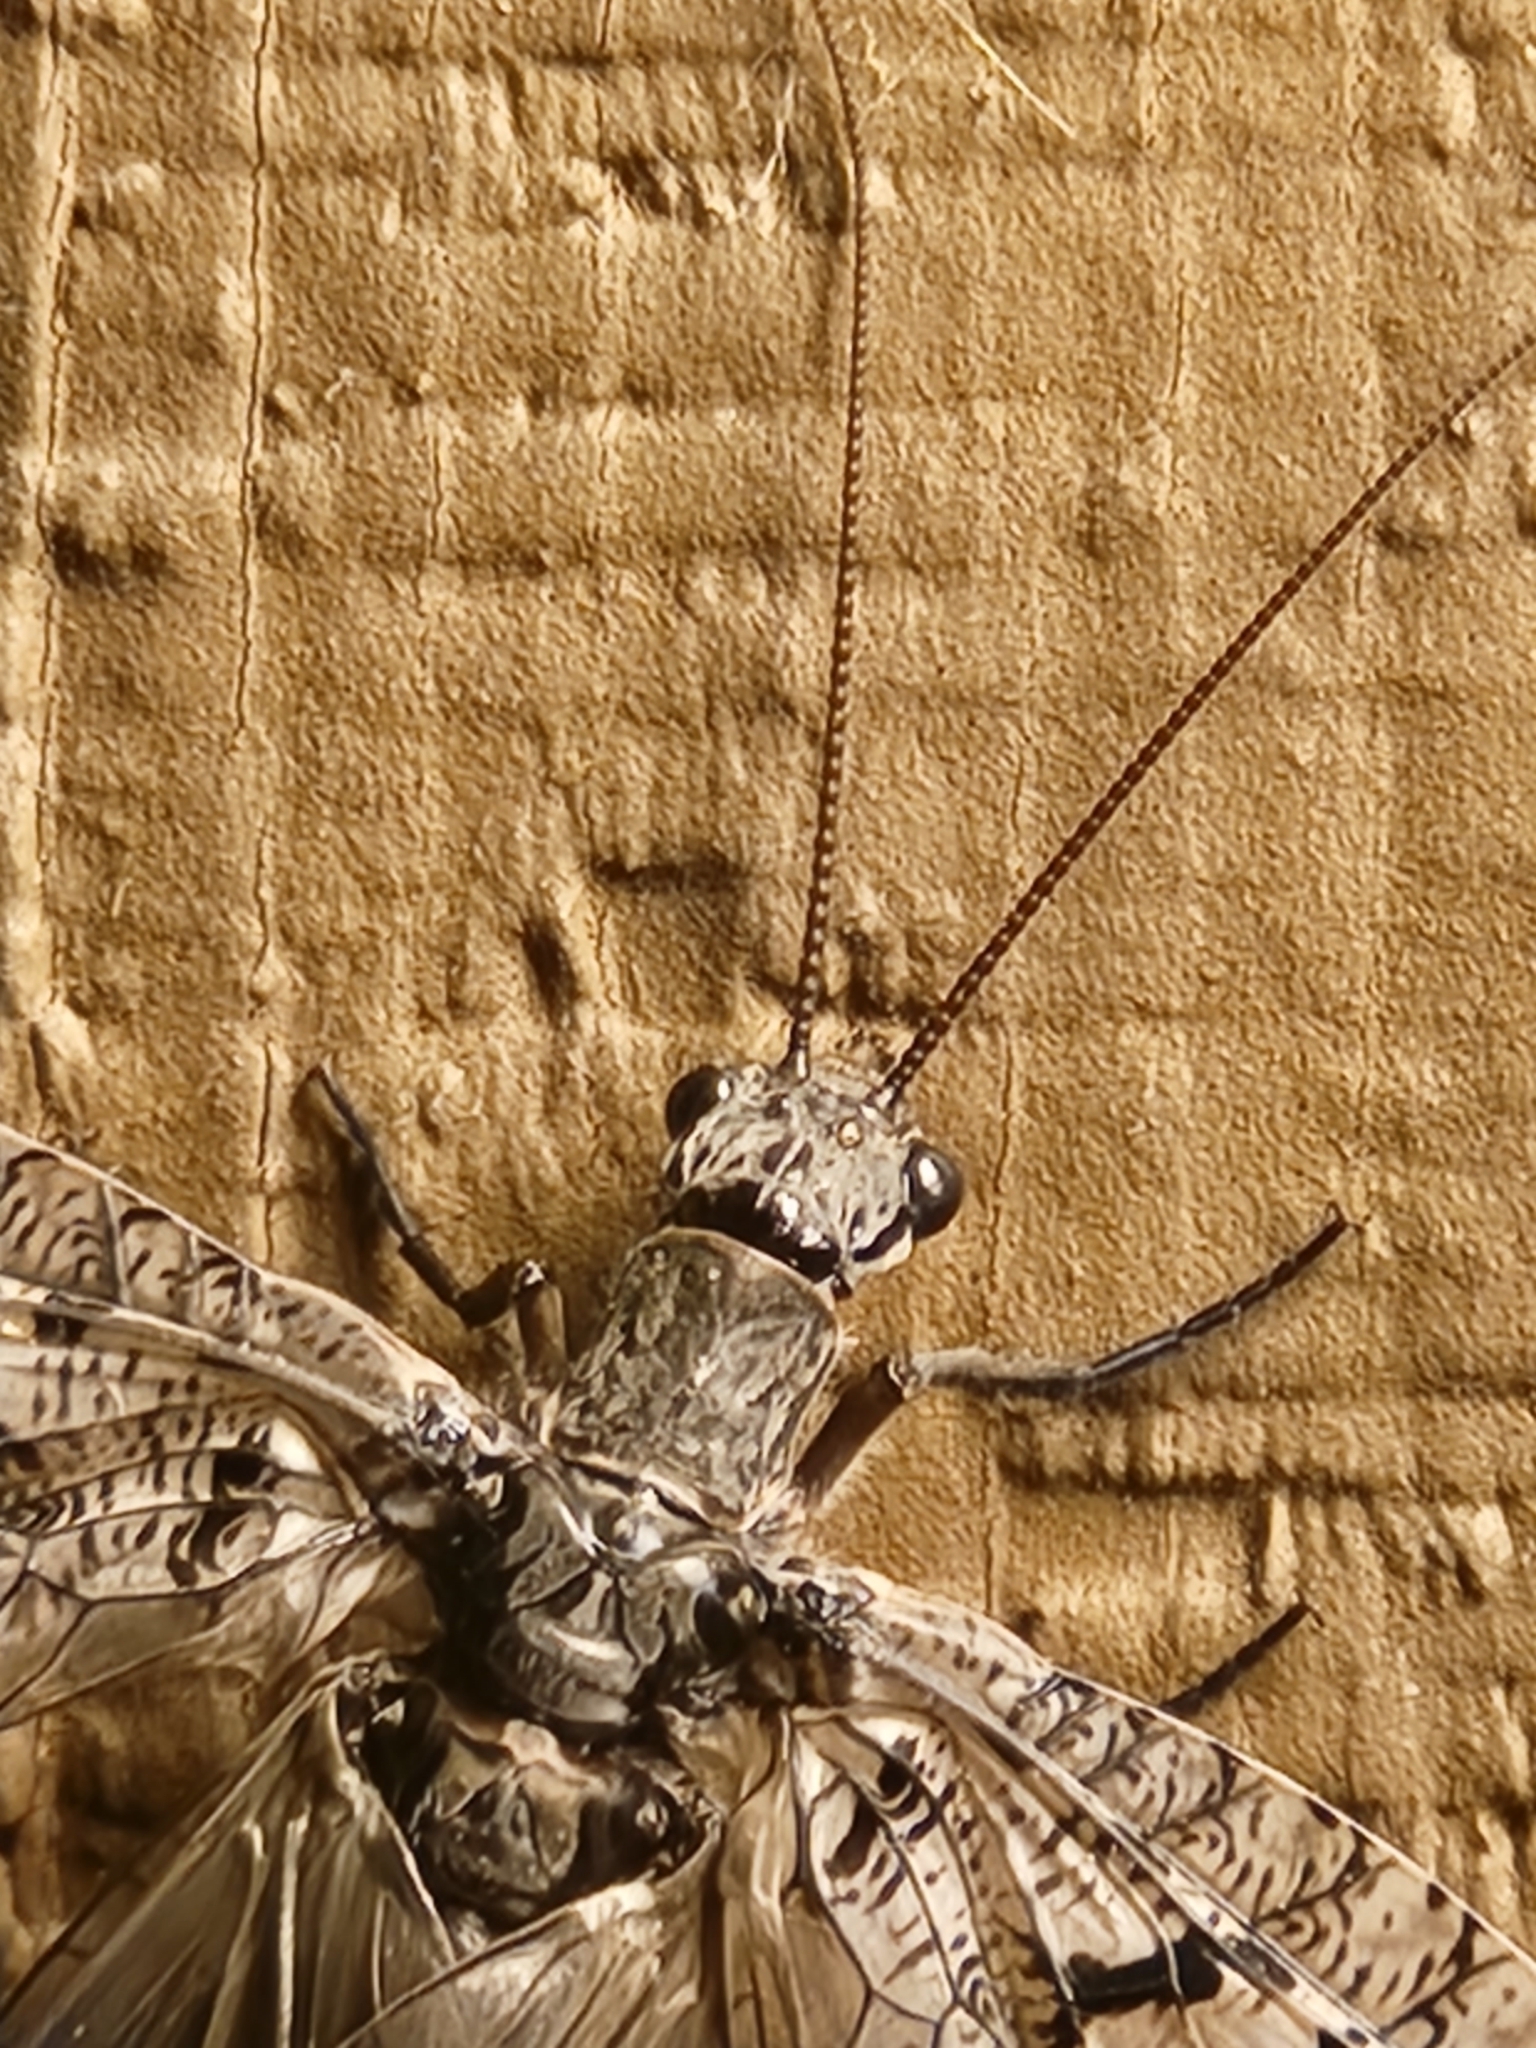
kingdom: Animalia
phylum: Arthropoda
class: Insecta
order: Megaloptera
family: Corydalidae
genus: Neohermes
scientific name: Neohermes filicornis
